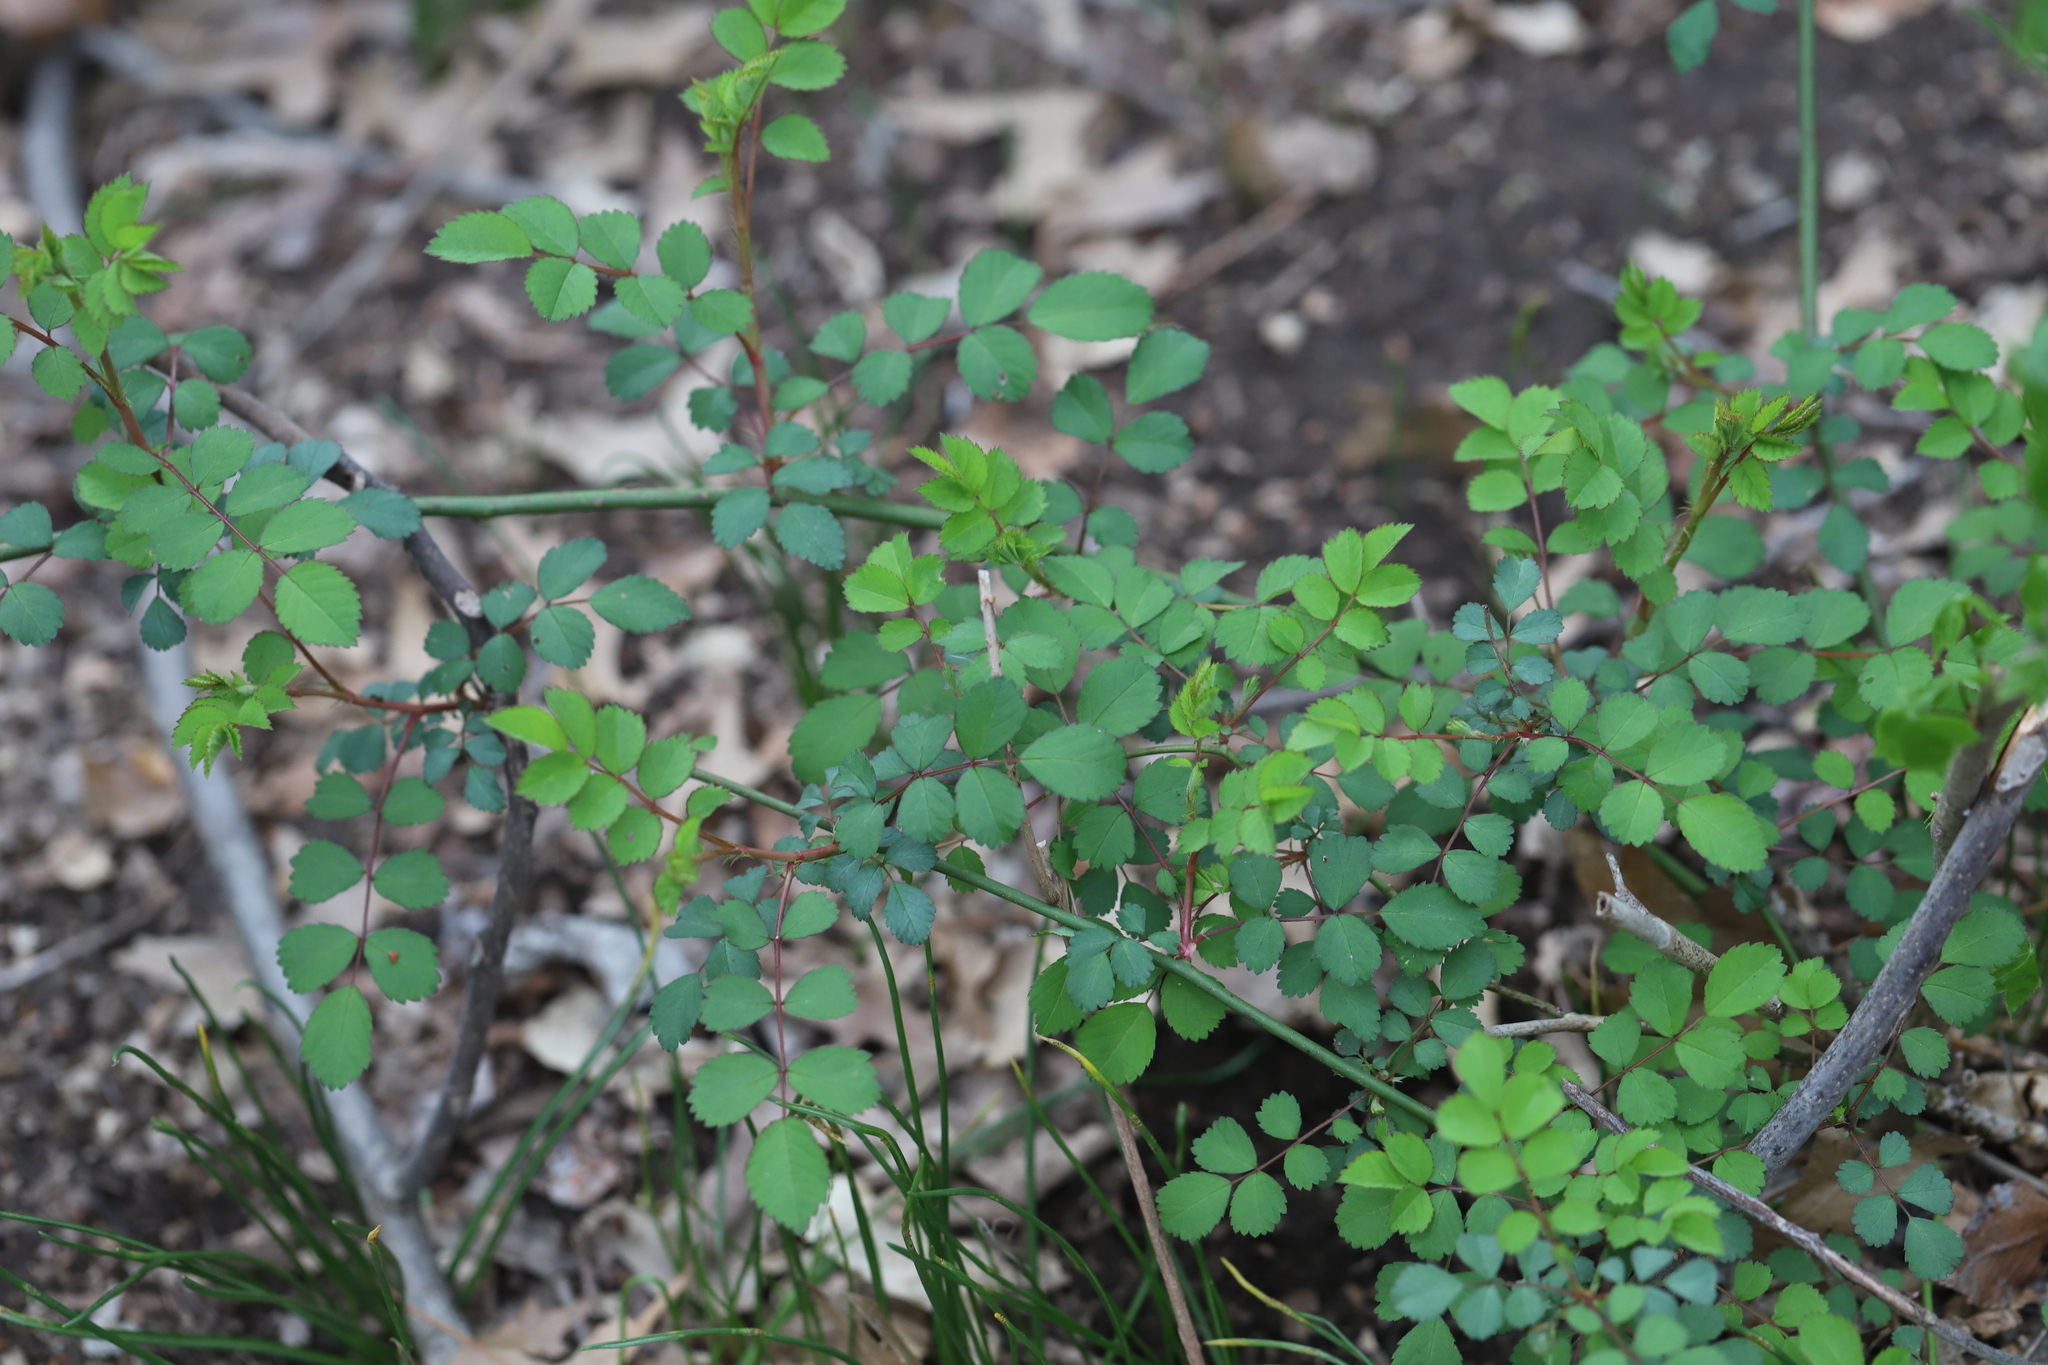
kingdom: Plantae
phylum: Tracheophyta
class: Magnoliopsida
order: Rosales
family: Rosaceae
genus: Rosa
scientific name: Rosa multiflora
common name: Multiflora rose
